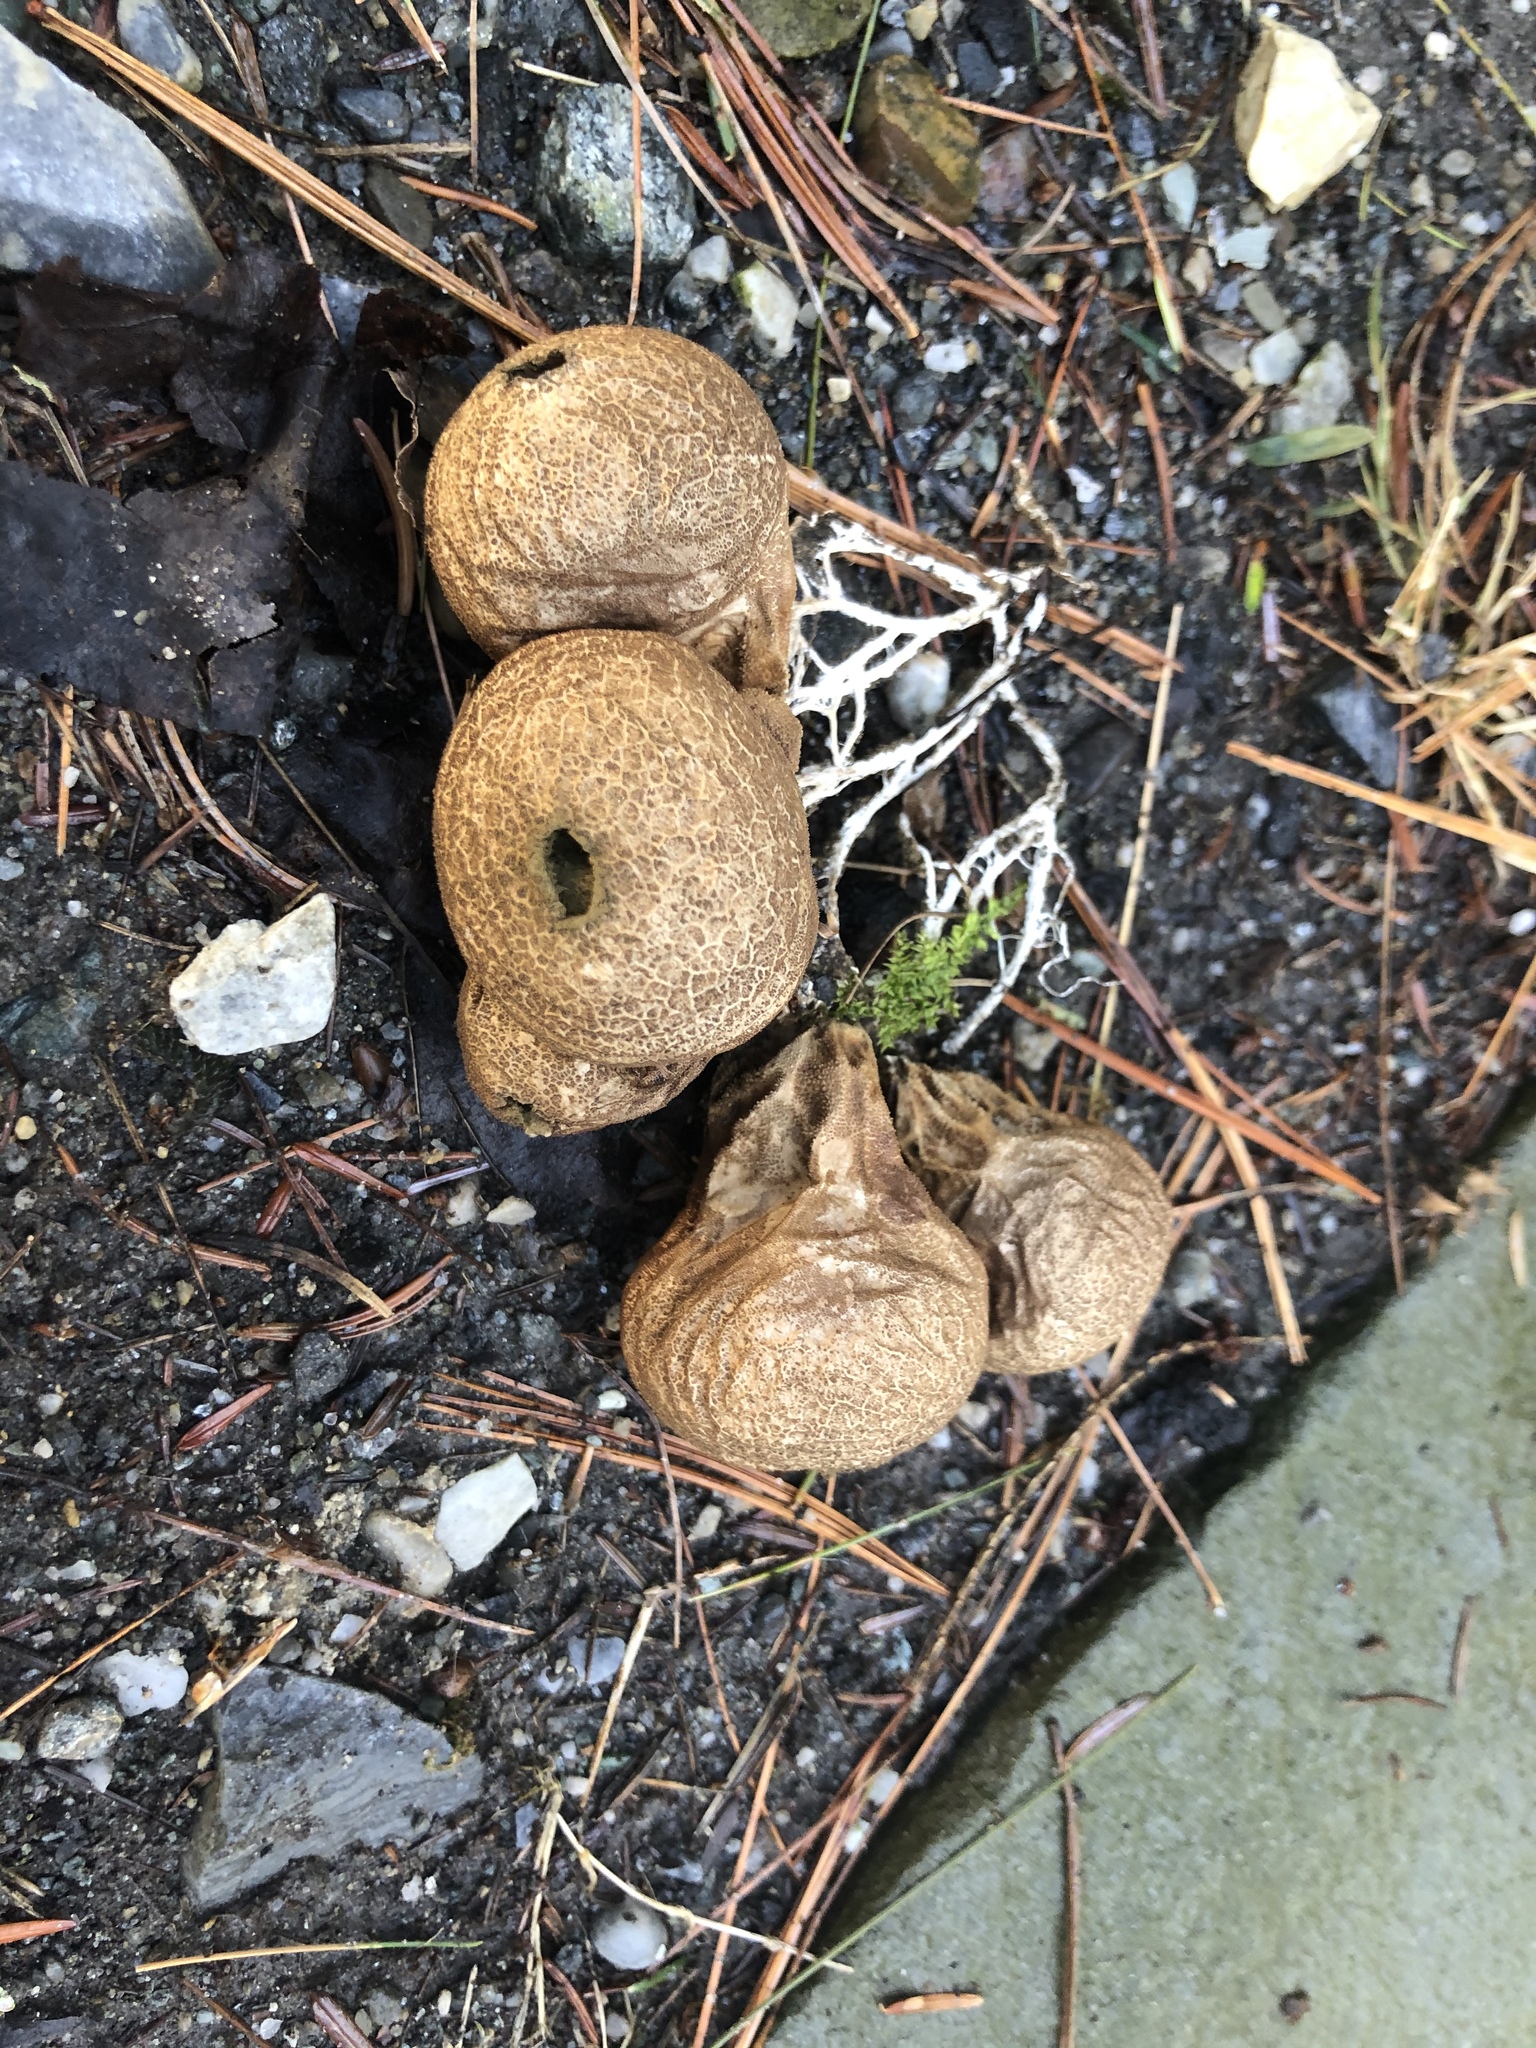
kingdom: Fungi
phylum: Basidiomycota
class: Agaricomycetes
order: Agaricales
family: Lycoperdaceae
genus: Apioperdon
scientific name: Apioperdon pyriforme
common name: Pear-shaped puffball
